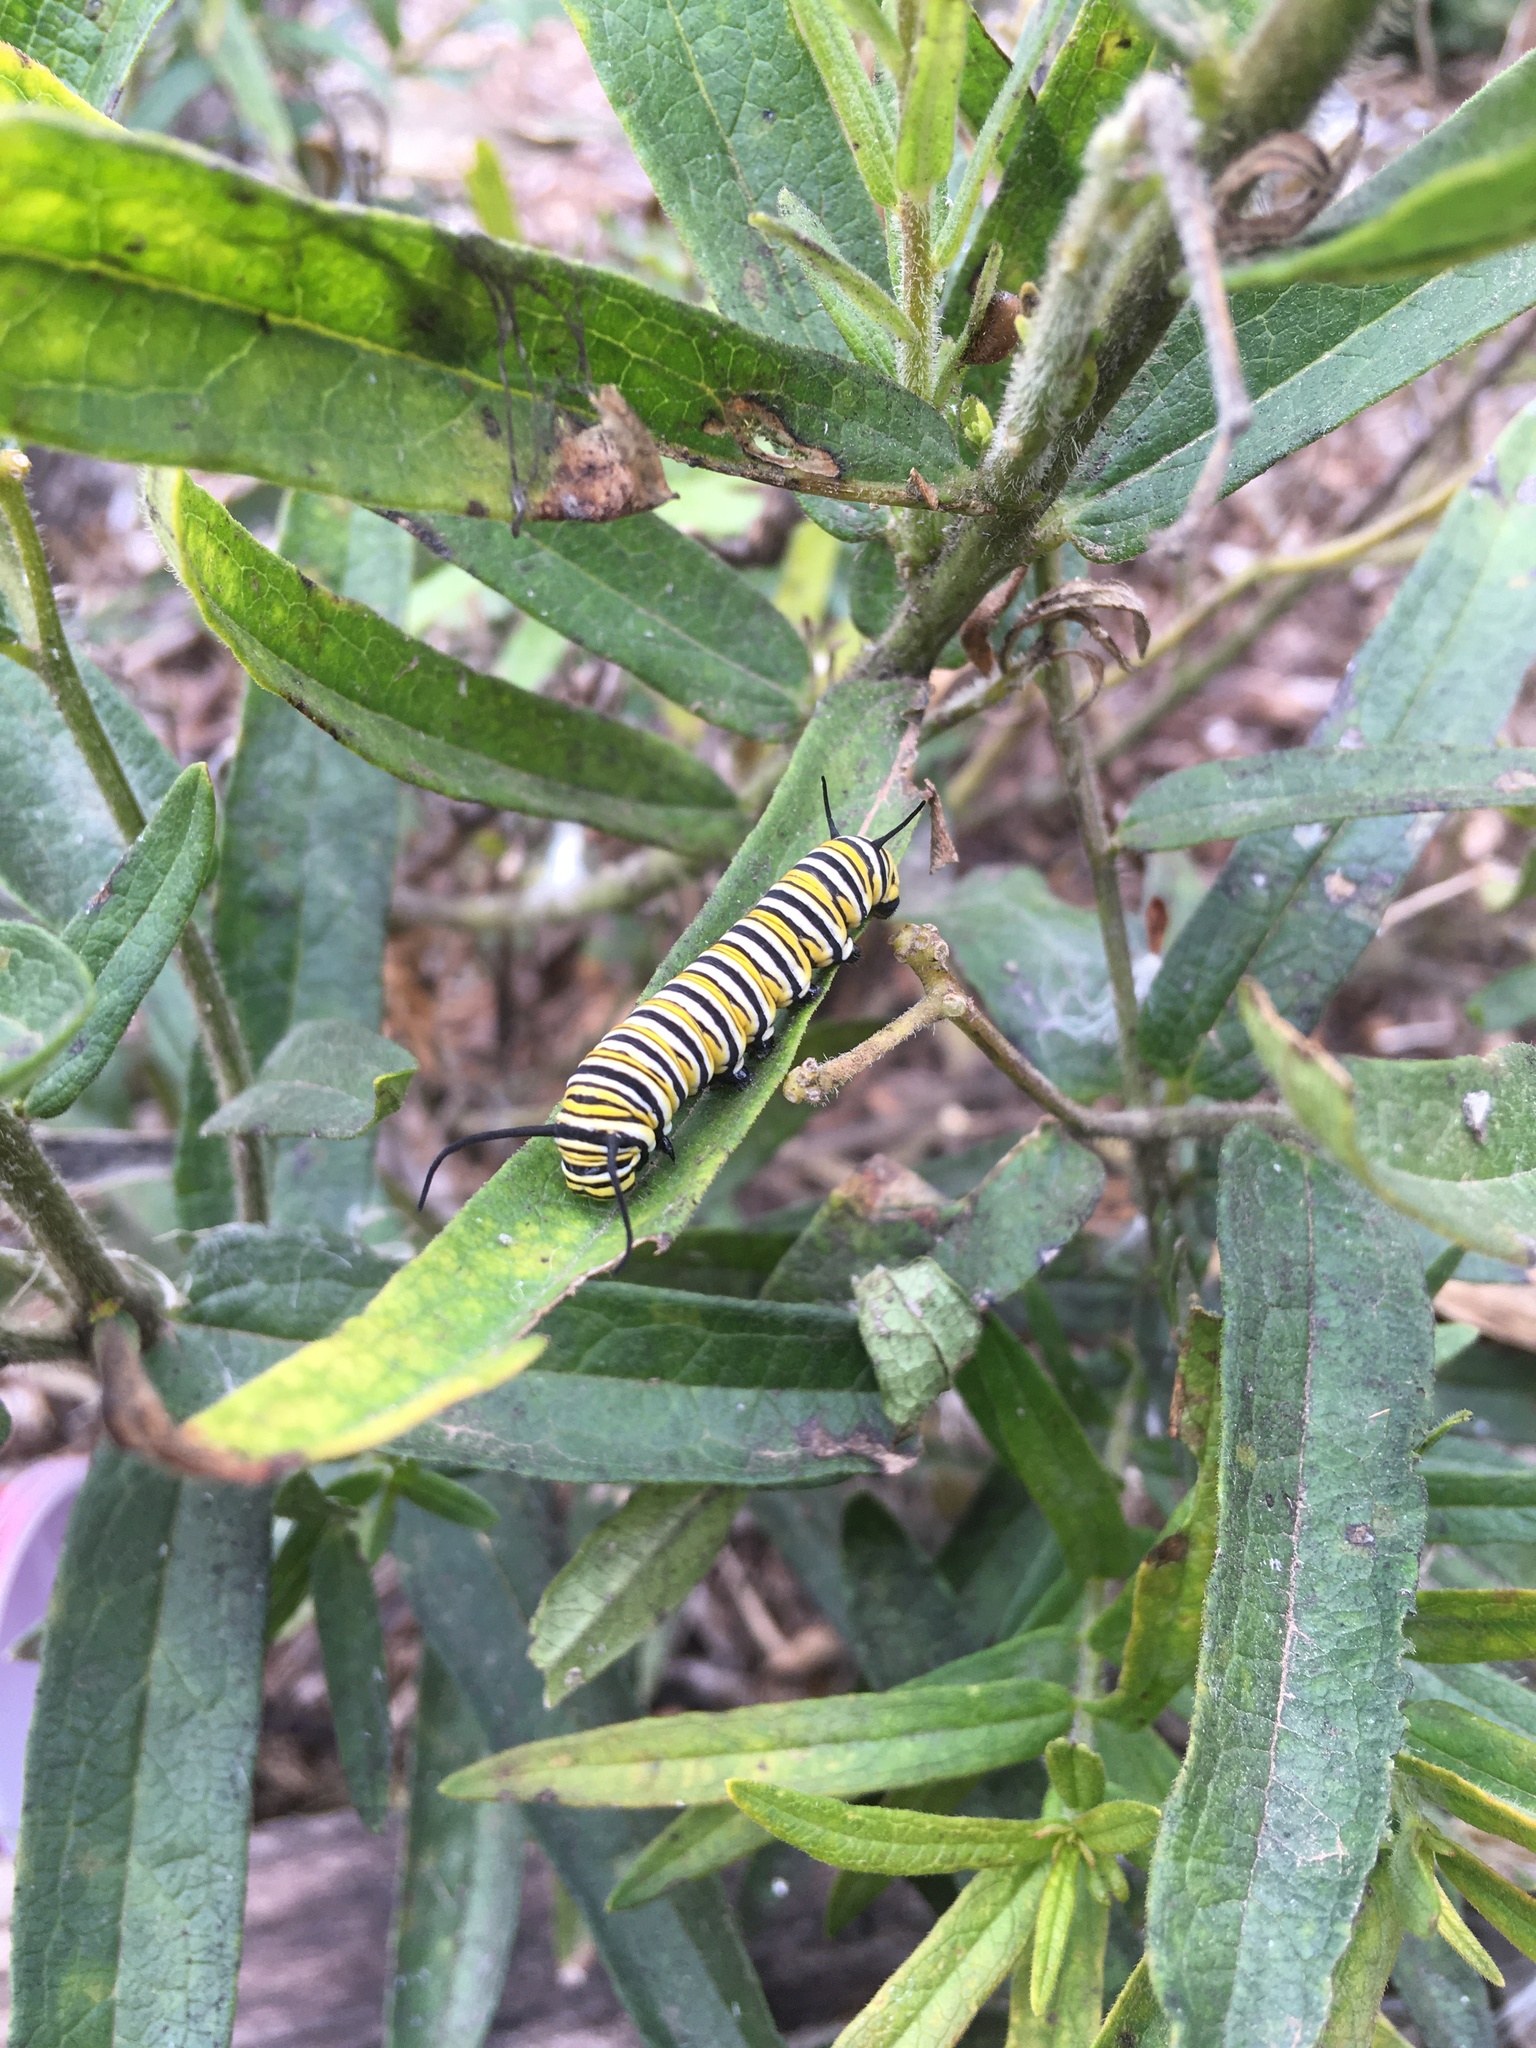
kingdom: Animalia
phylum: Arthropoda
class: Insecta
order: Lepidoptera
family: Nymphalidae
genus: Danaus
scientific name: Danaus plexippus
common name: Monarch
